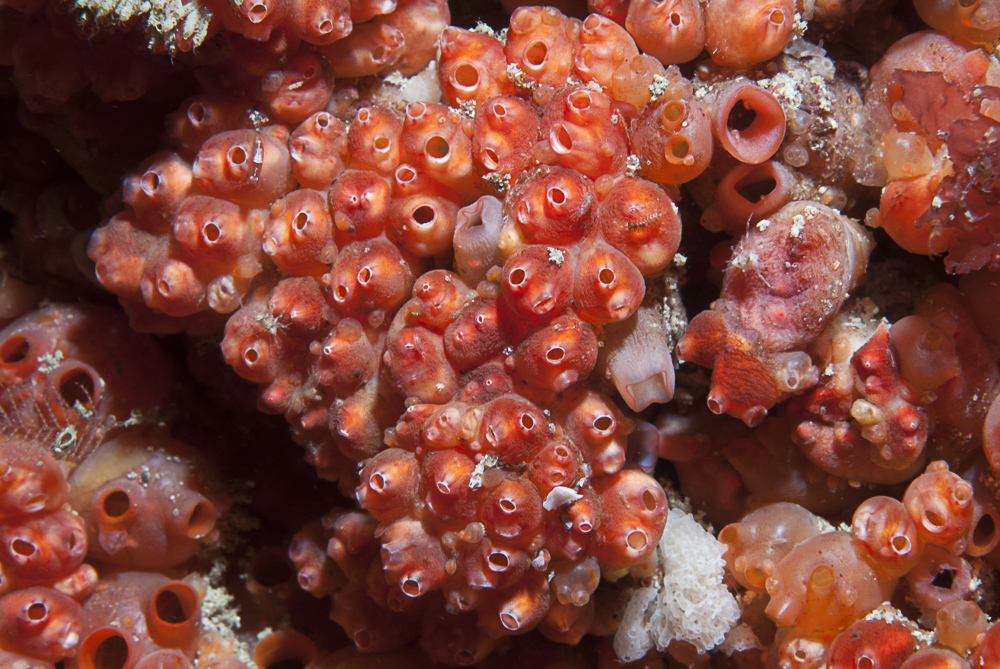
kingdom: Animalia
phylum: Chordata
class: Ascidiacea
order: Stolidobranchia
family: Styelidae
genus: Distomus
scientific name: Distomus variolosus
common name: Lesser gooseberry sea squirt
